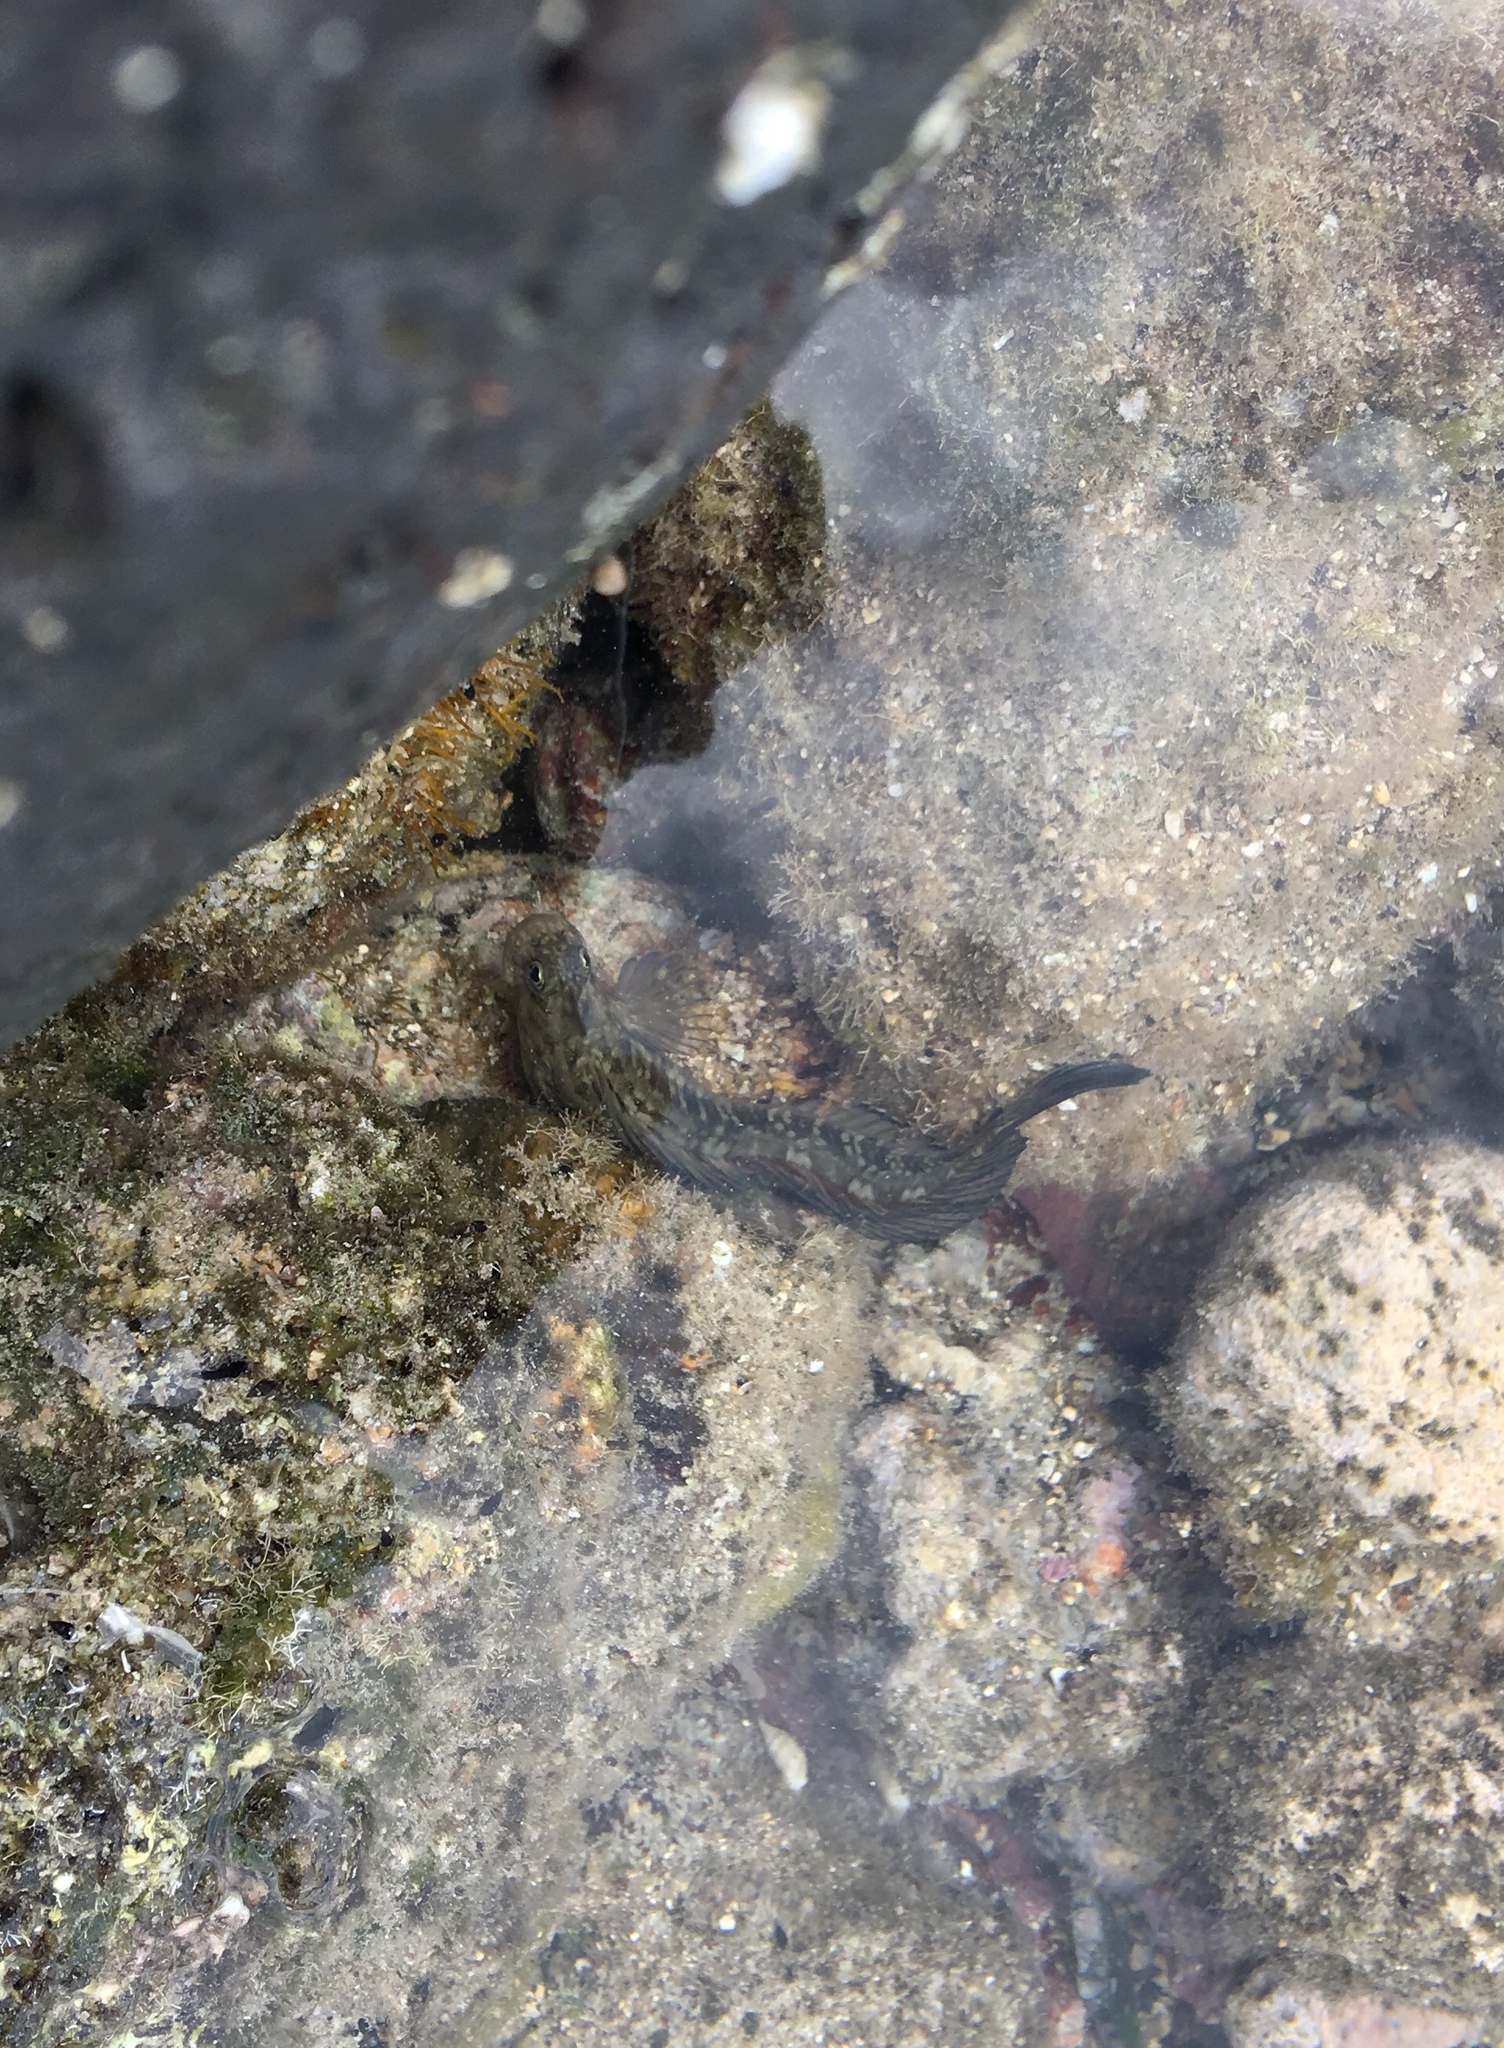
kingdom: Animalia
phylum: Chordata
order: Perciformes
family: Blenniidae
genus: Istiblennius
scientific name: Istiblennius zebra
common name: Zebra blenny
